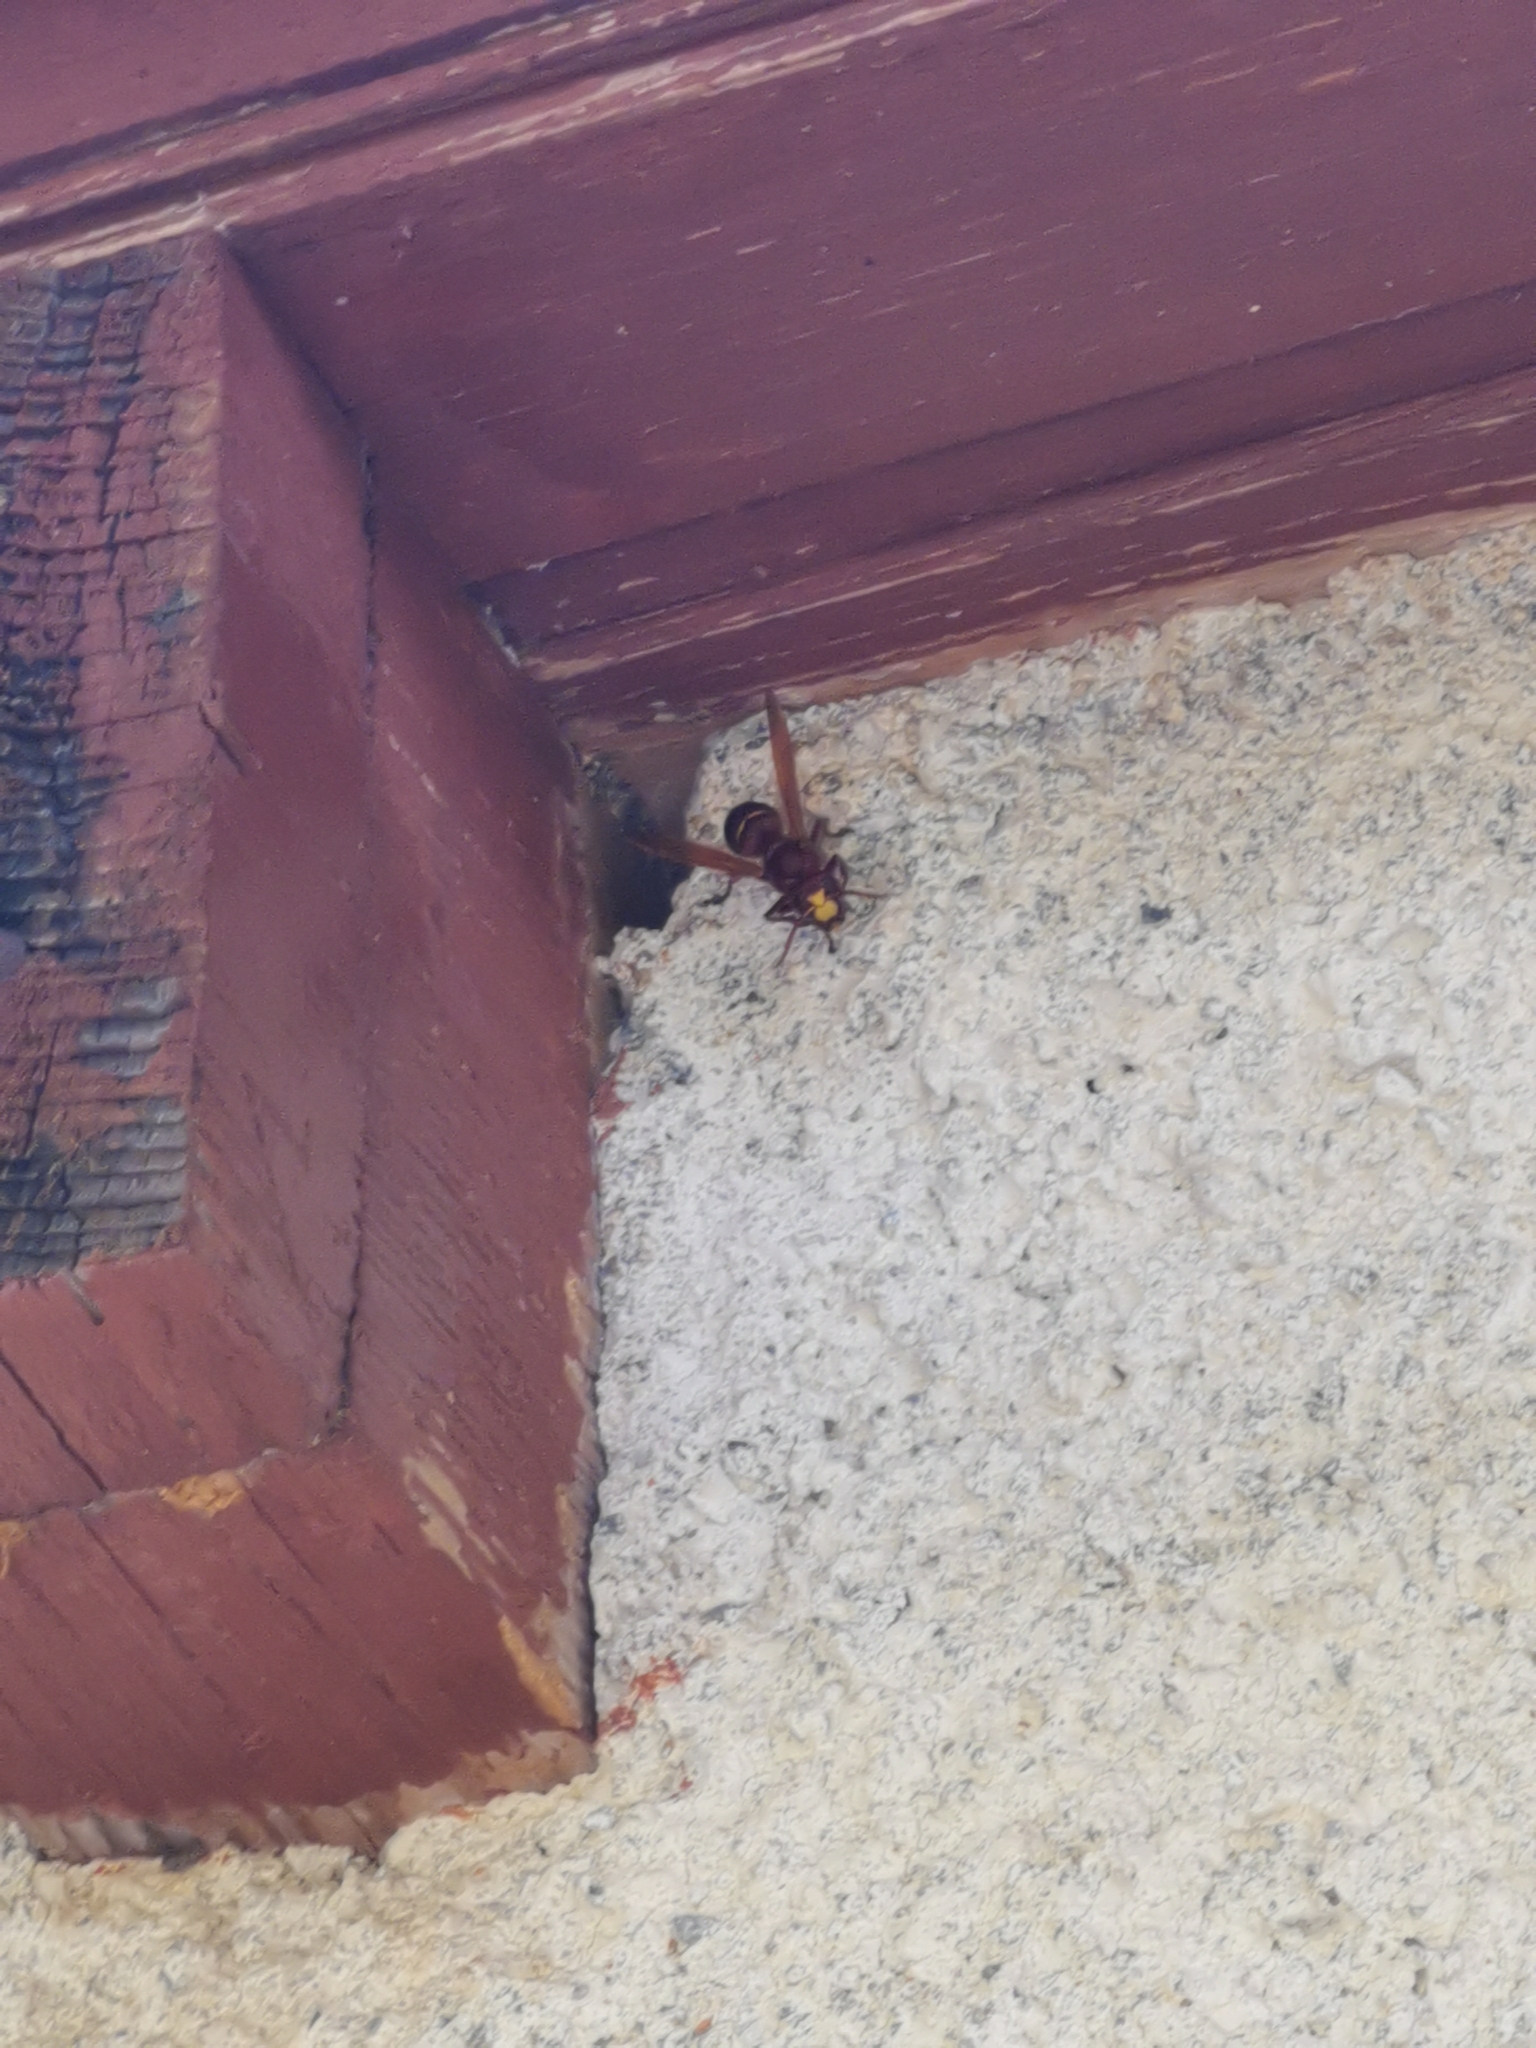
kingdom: Animalia
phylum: Arthropoda
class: Insecta
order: Hymenoptera
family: Vespidae
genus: Vespa
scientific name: Vespa orientalis
